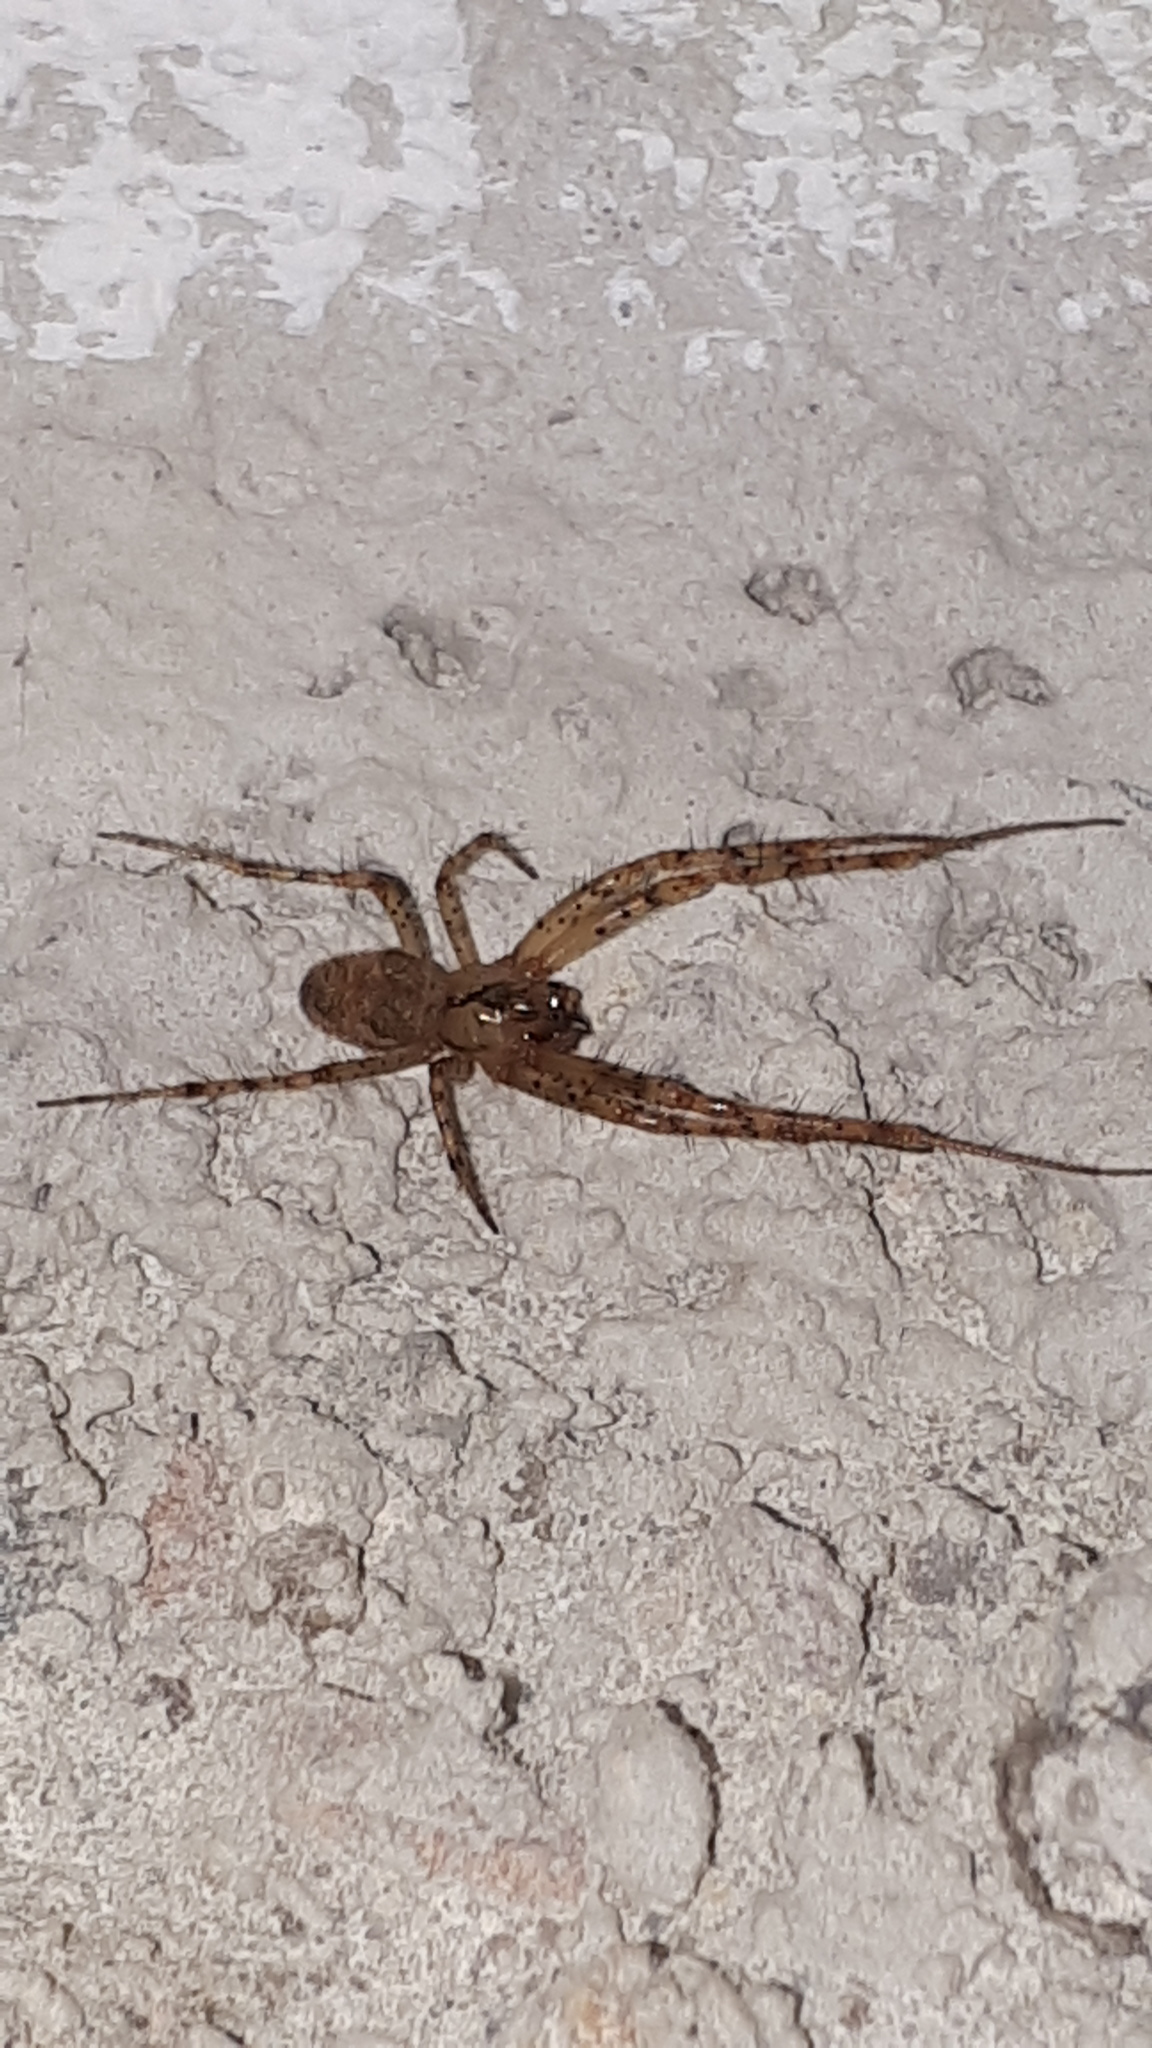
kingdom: Animalia
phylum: Arthropoda
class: Arachnida
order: Araneae
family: Tetragnathidae
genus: Metellina
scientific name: Metellina merianae
